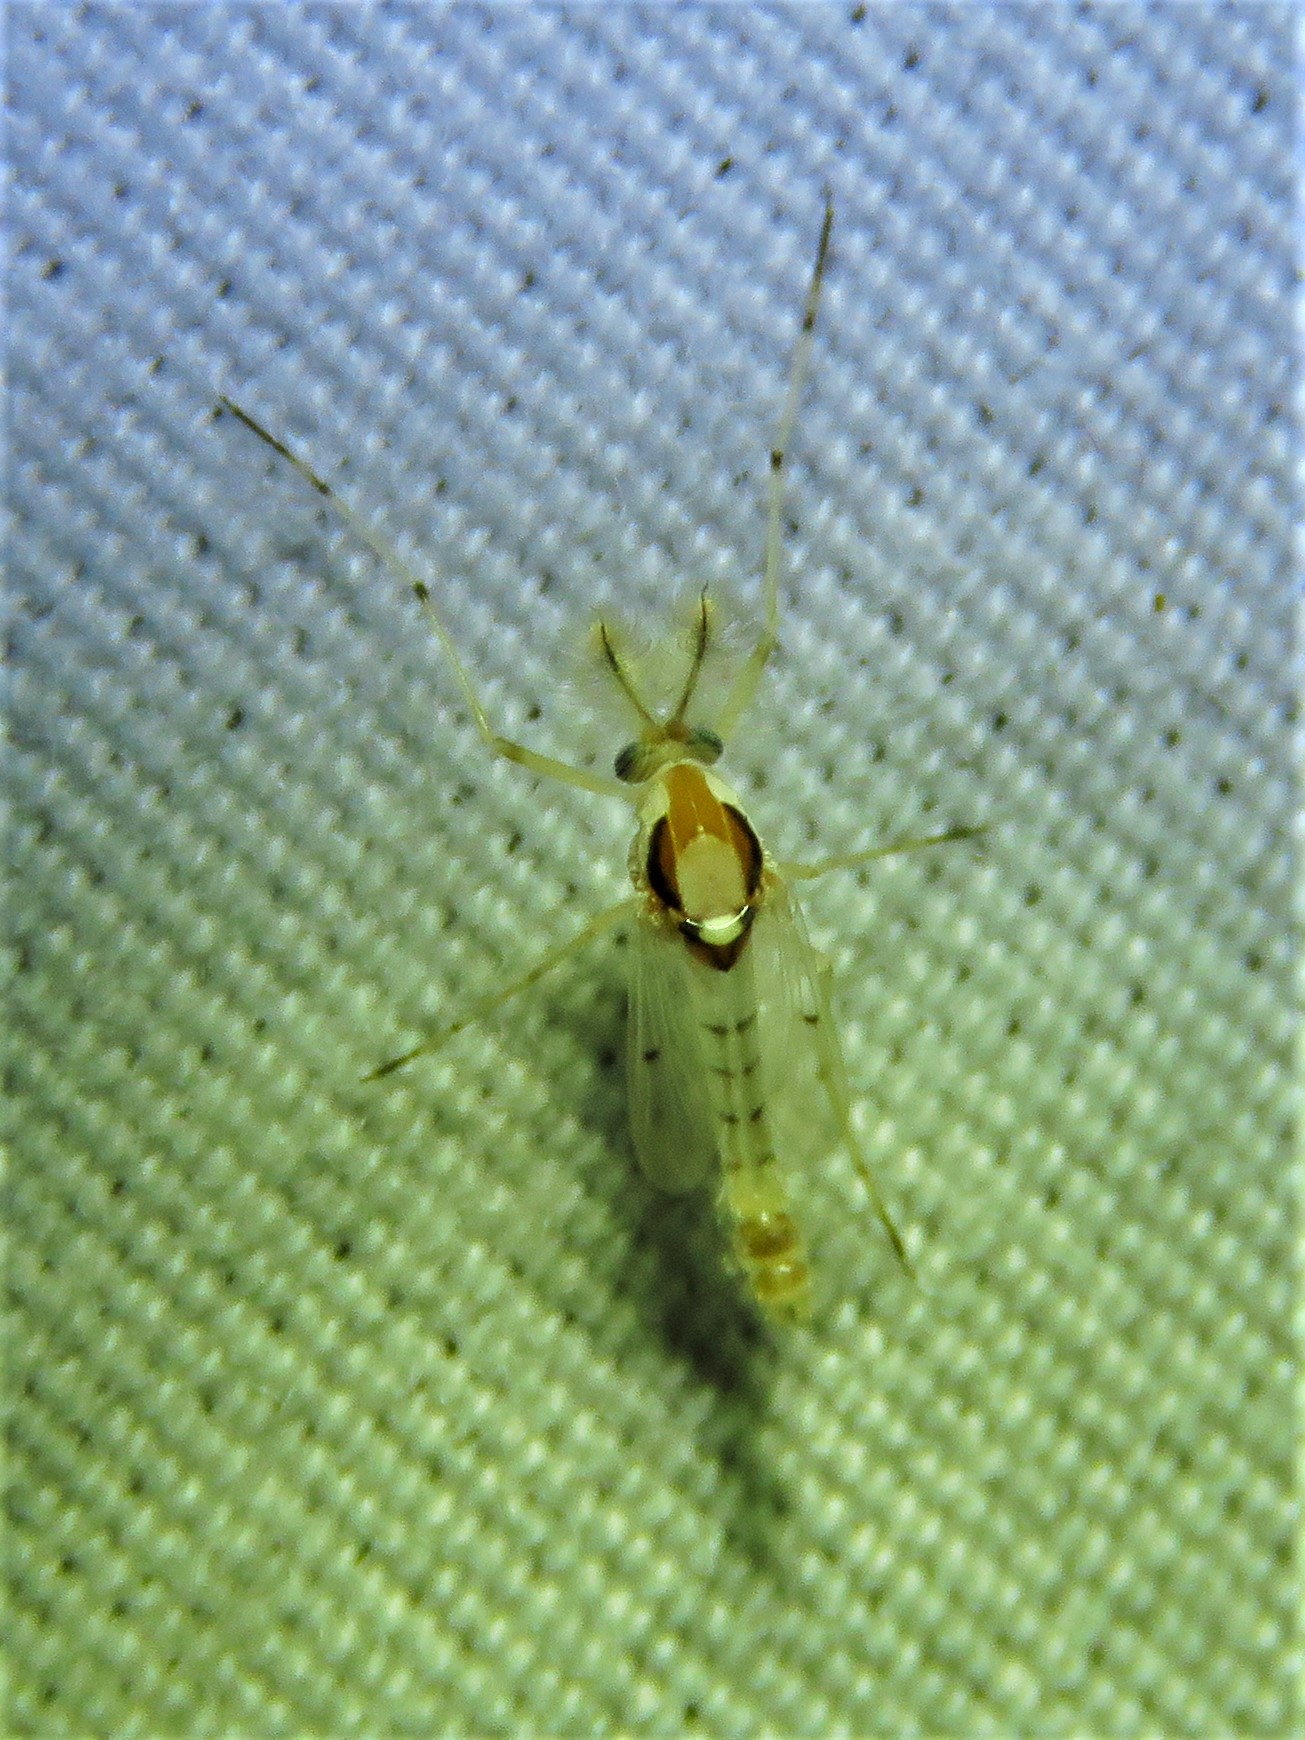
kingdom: Animalia
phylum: Arthropoda
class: Insecta
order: Diptera
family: Chironomidae
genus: Coelotanypus
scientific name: Coelotanypus concinnus
